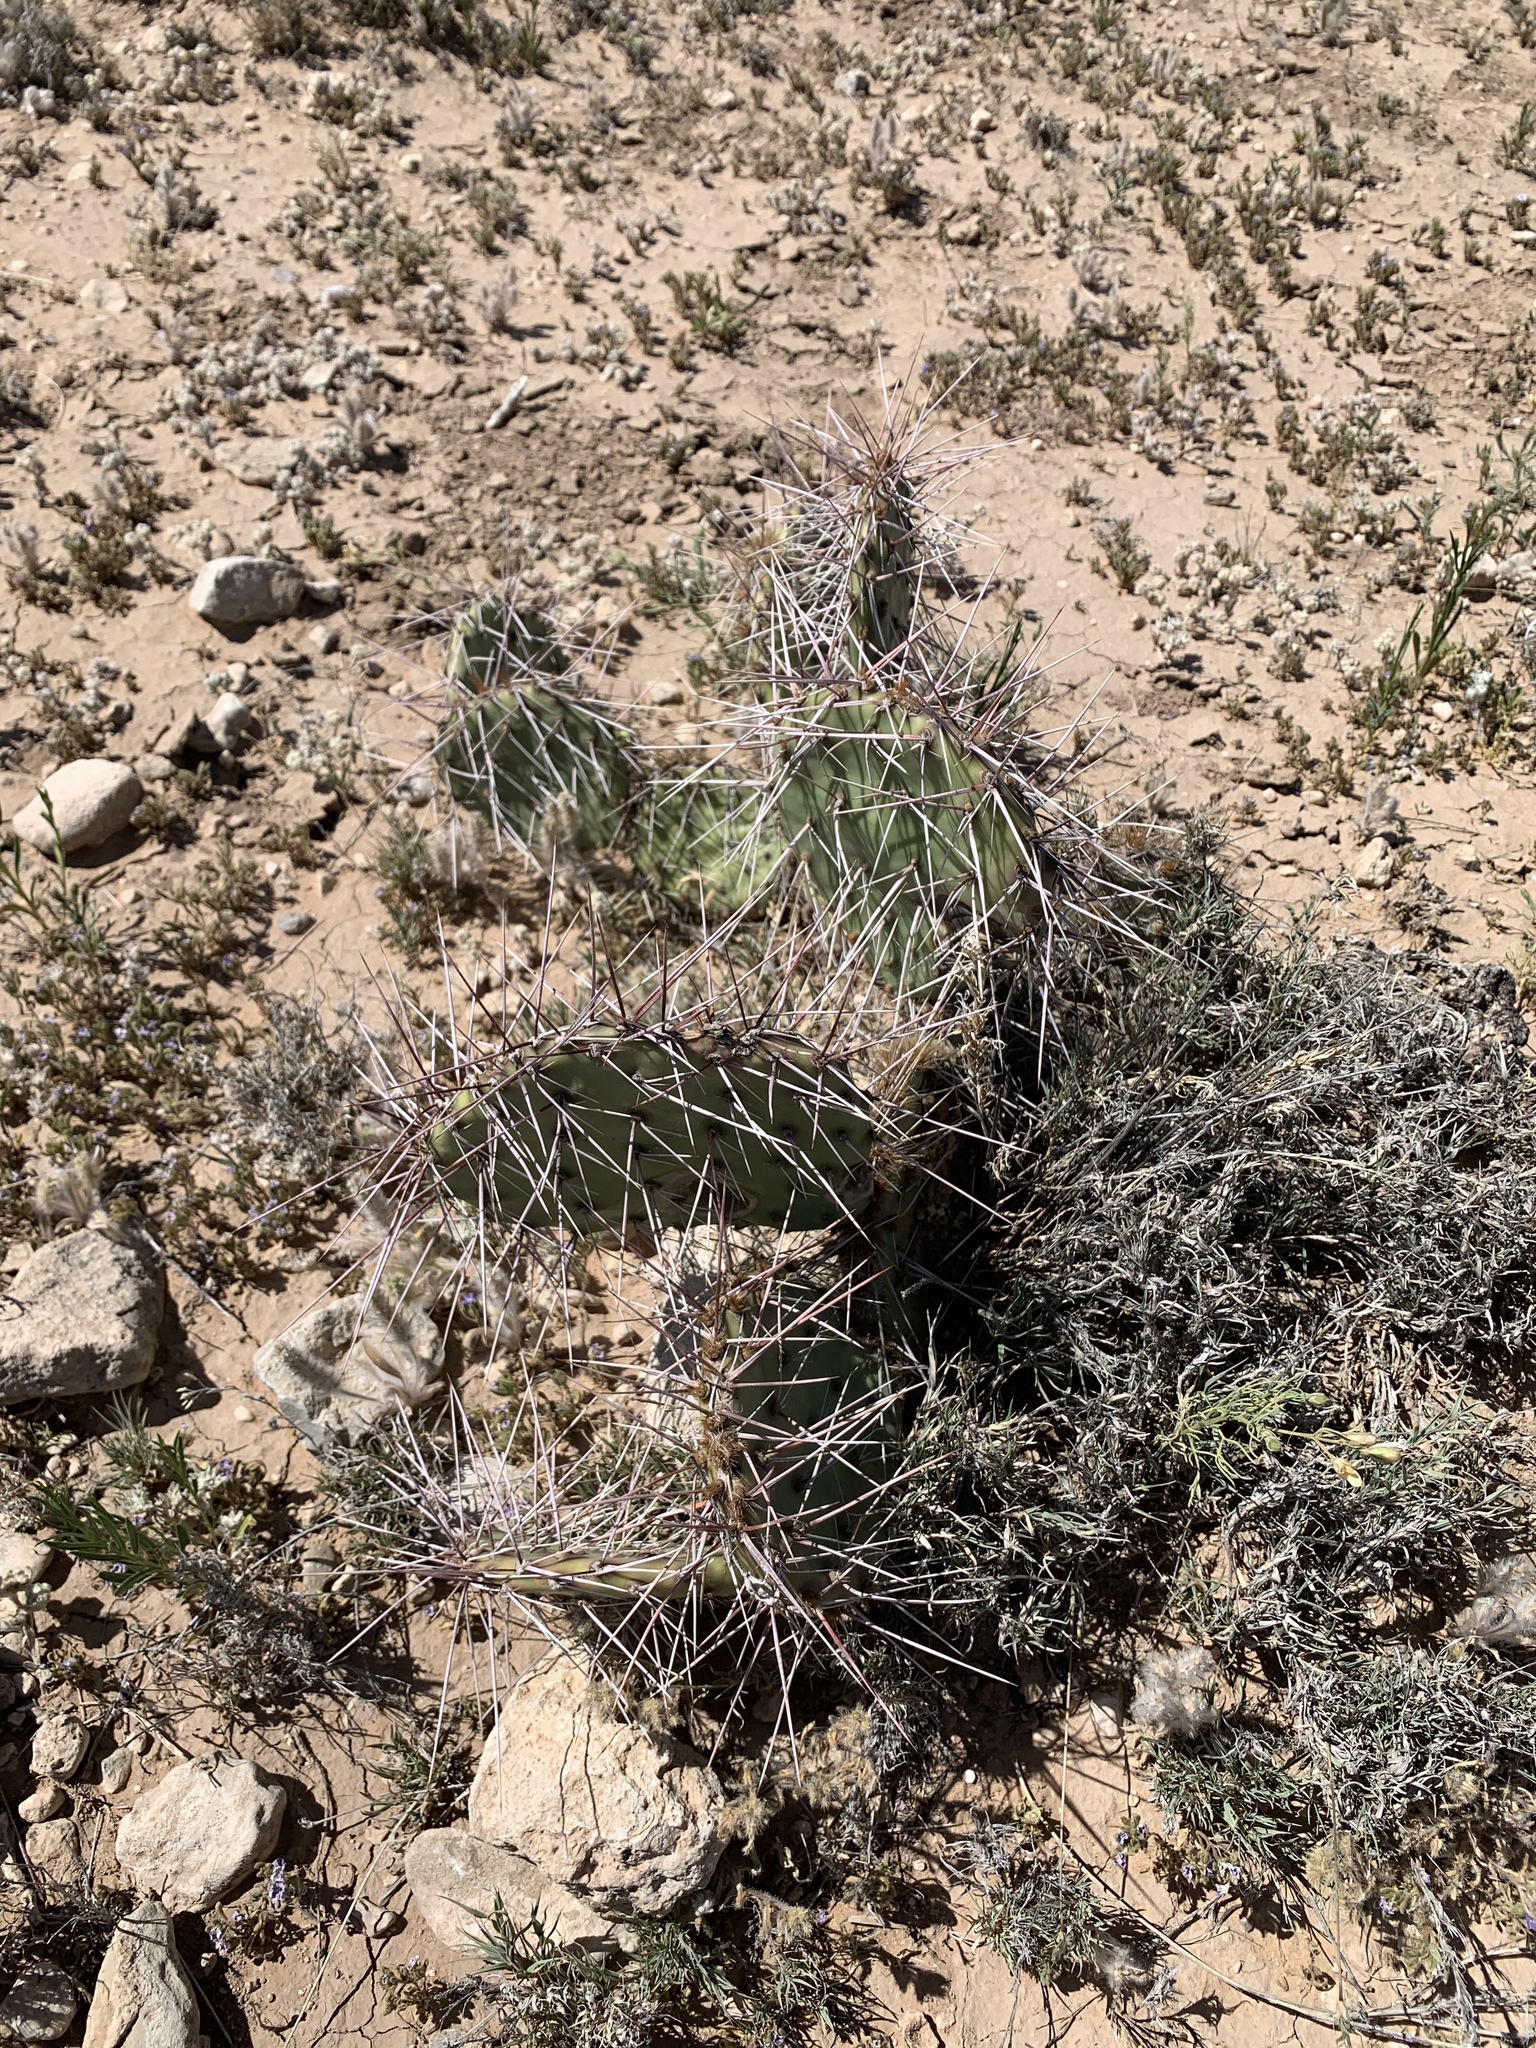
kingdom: Plantae
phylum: Tracheophyta
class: Magnoliopsida
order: Caryophyllales
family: Cactaceae
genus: Opuntia
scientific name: Opuntia macrorhiza
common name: Grassland pricklypear
